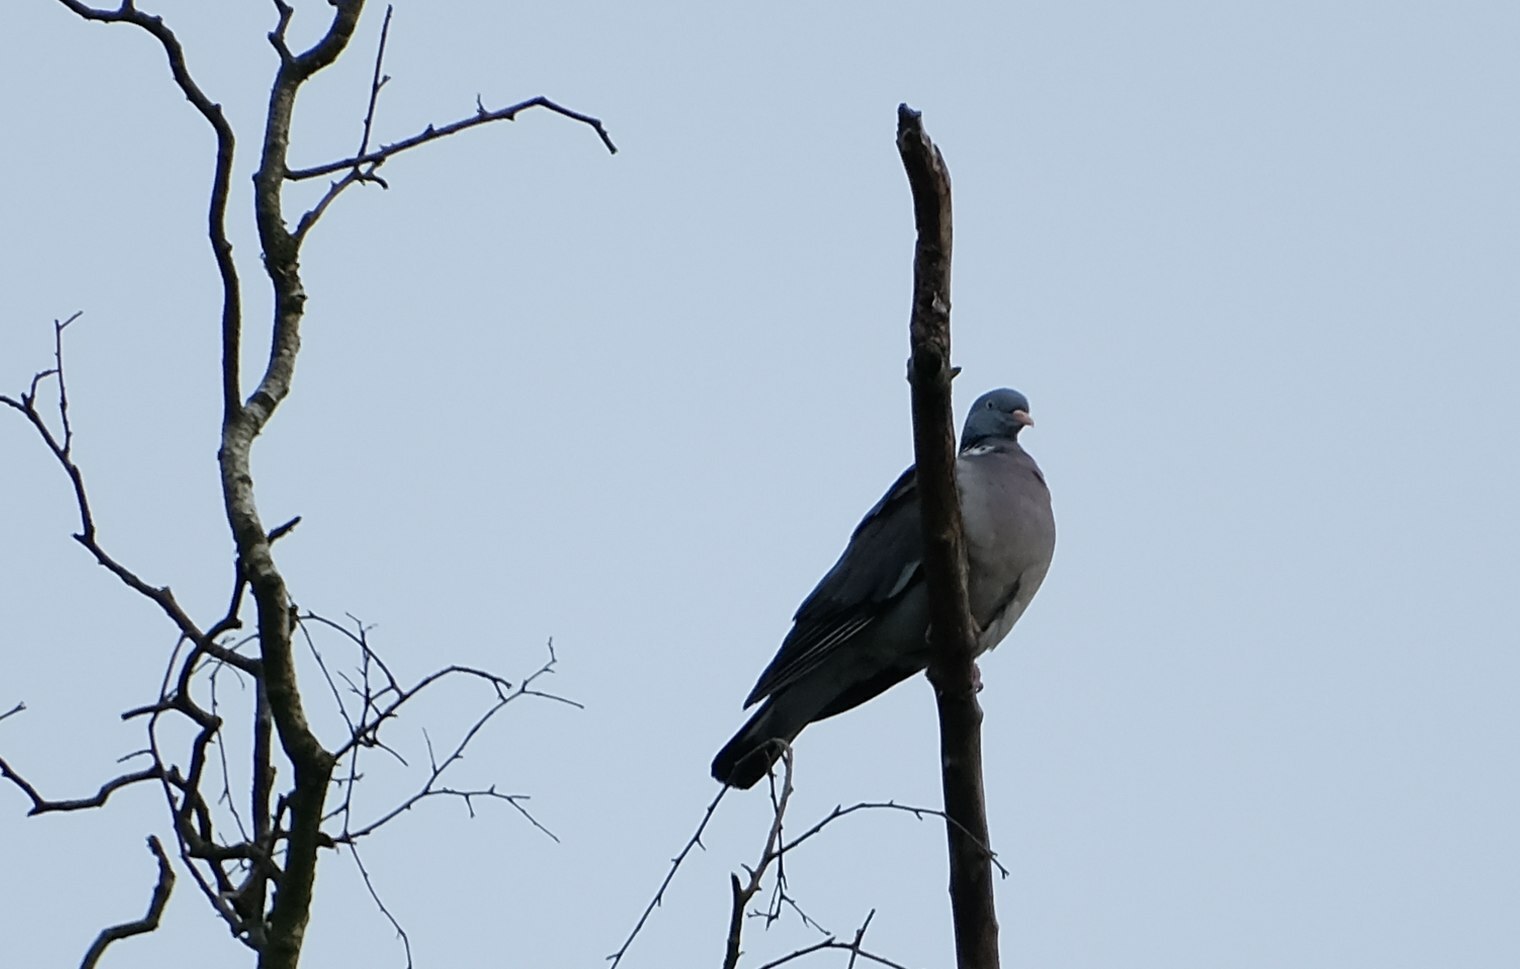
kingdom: Animalia
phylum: Chordata
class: Aves
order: Columbiformes
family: Columbidae
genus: Columba
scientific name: Columba palumbus
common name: Common wood pigeon
